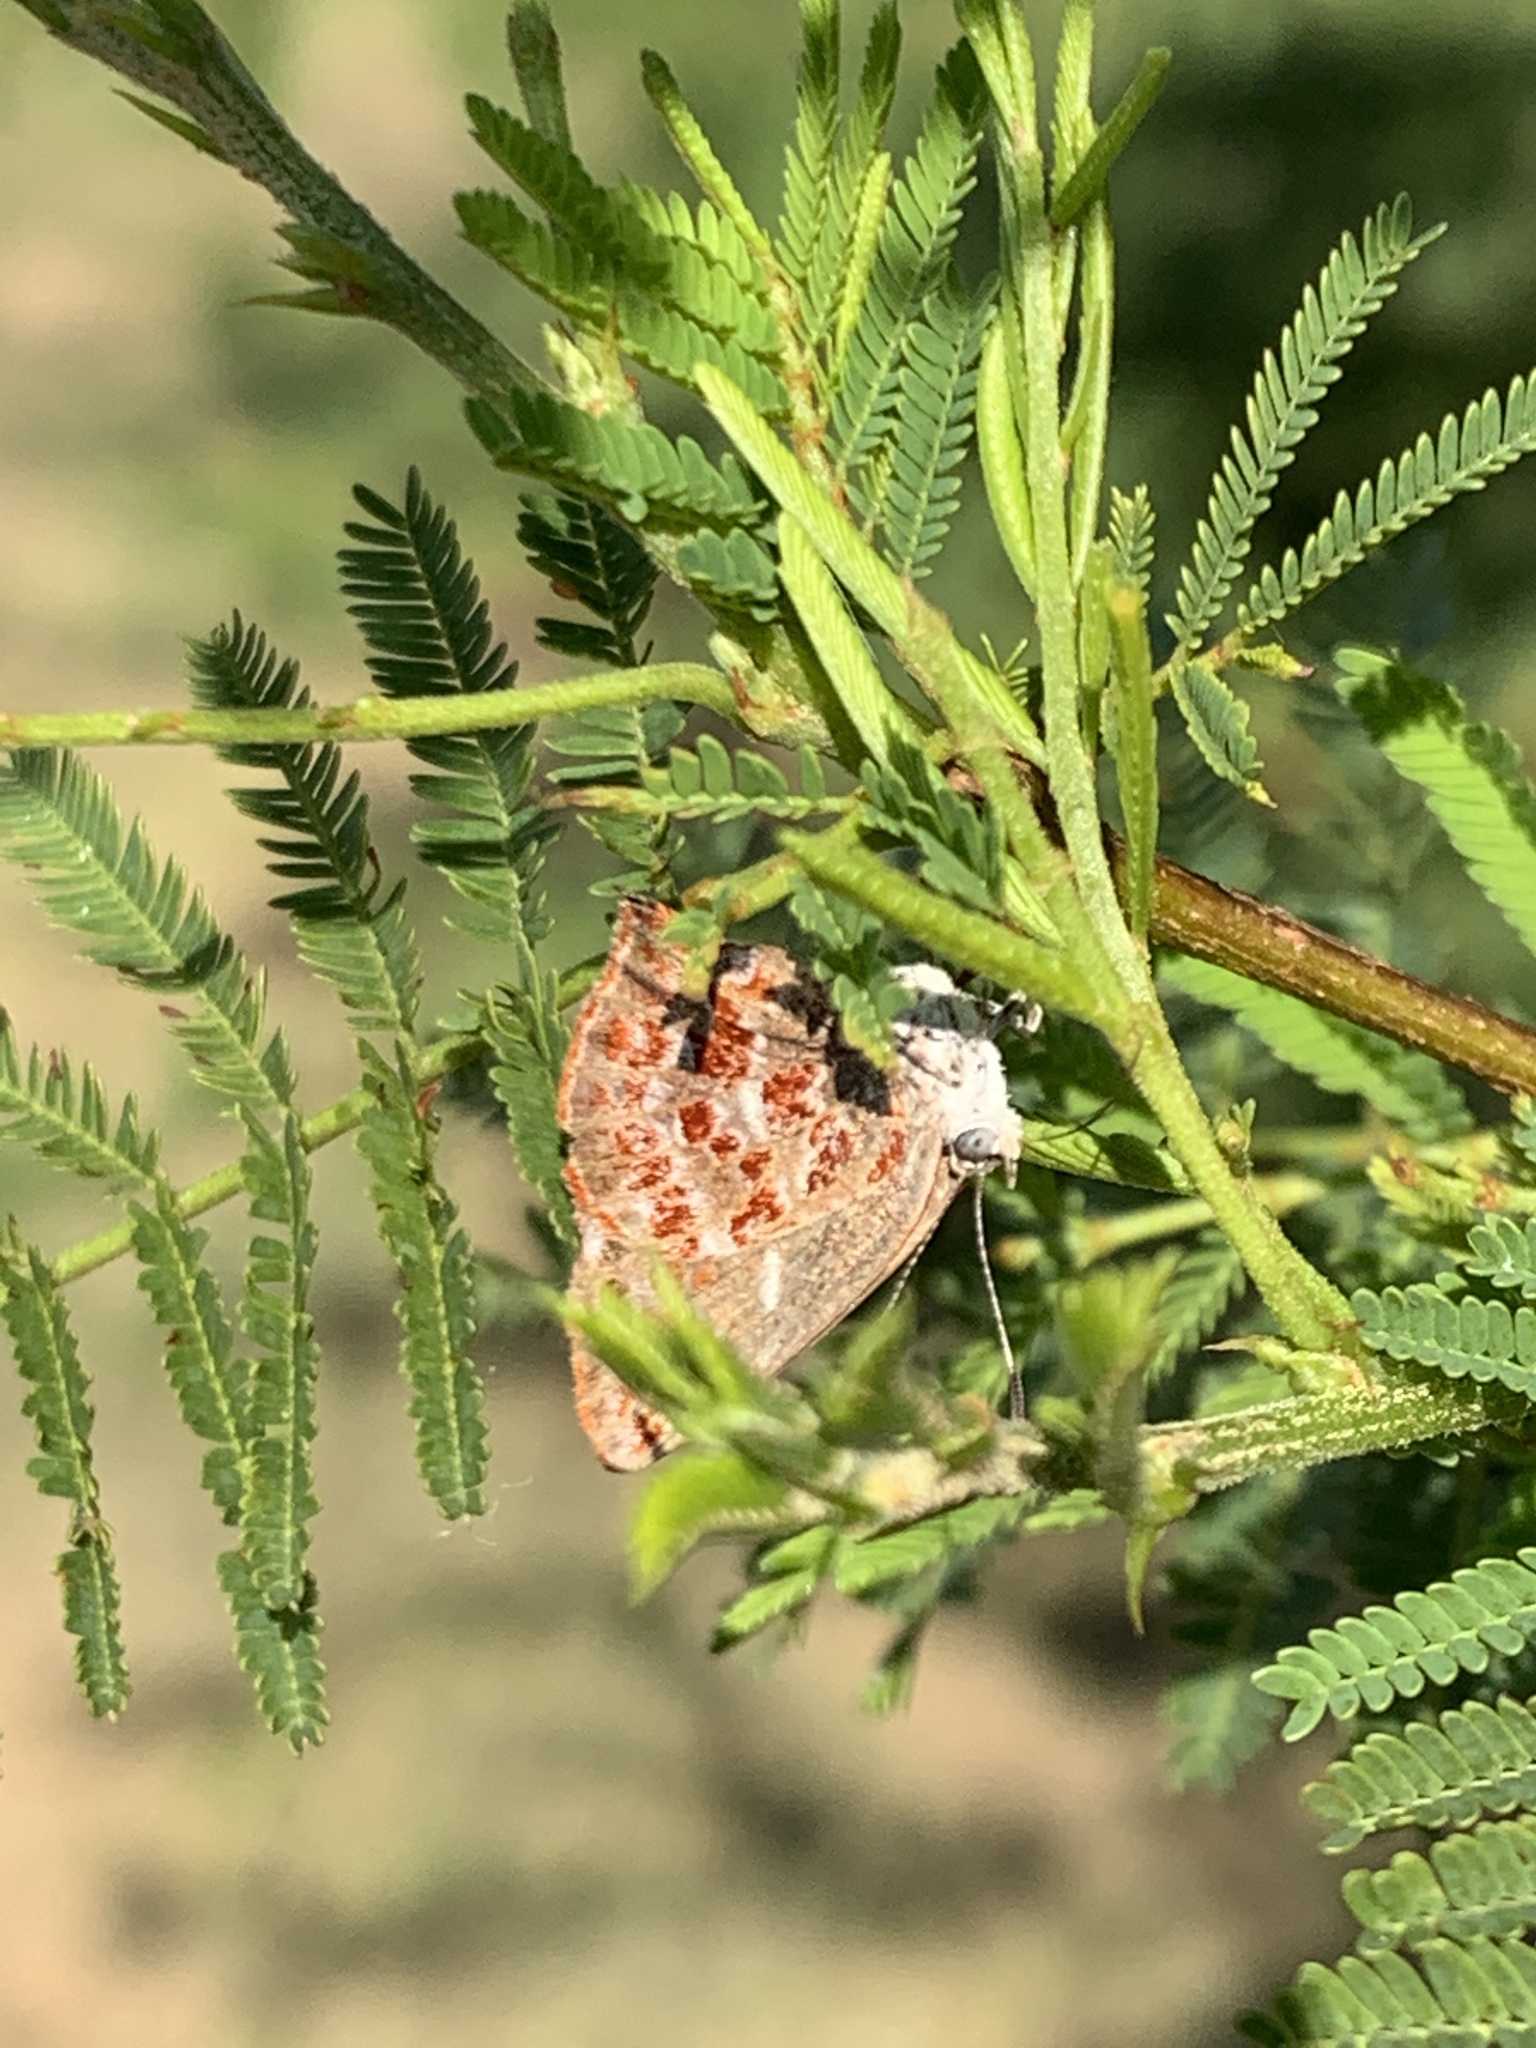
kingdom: Animalia
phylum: Arthropoda
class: Insecta
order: Lepidoptera
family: Lycaenidae
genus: Ministrymon
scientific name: Ministrymon
